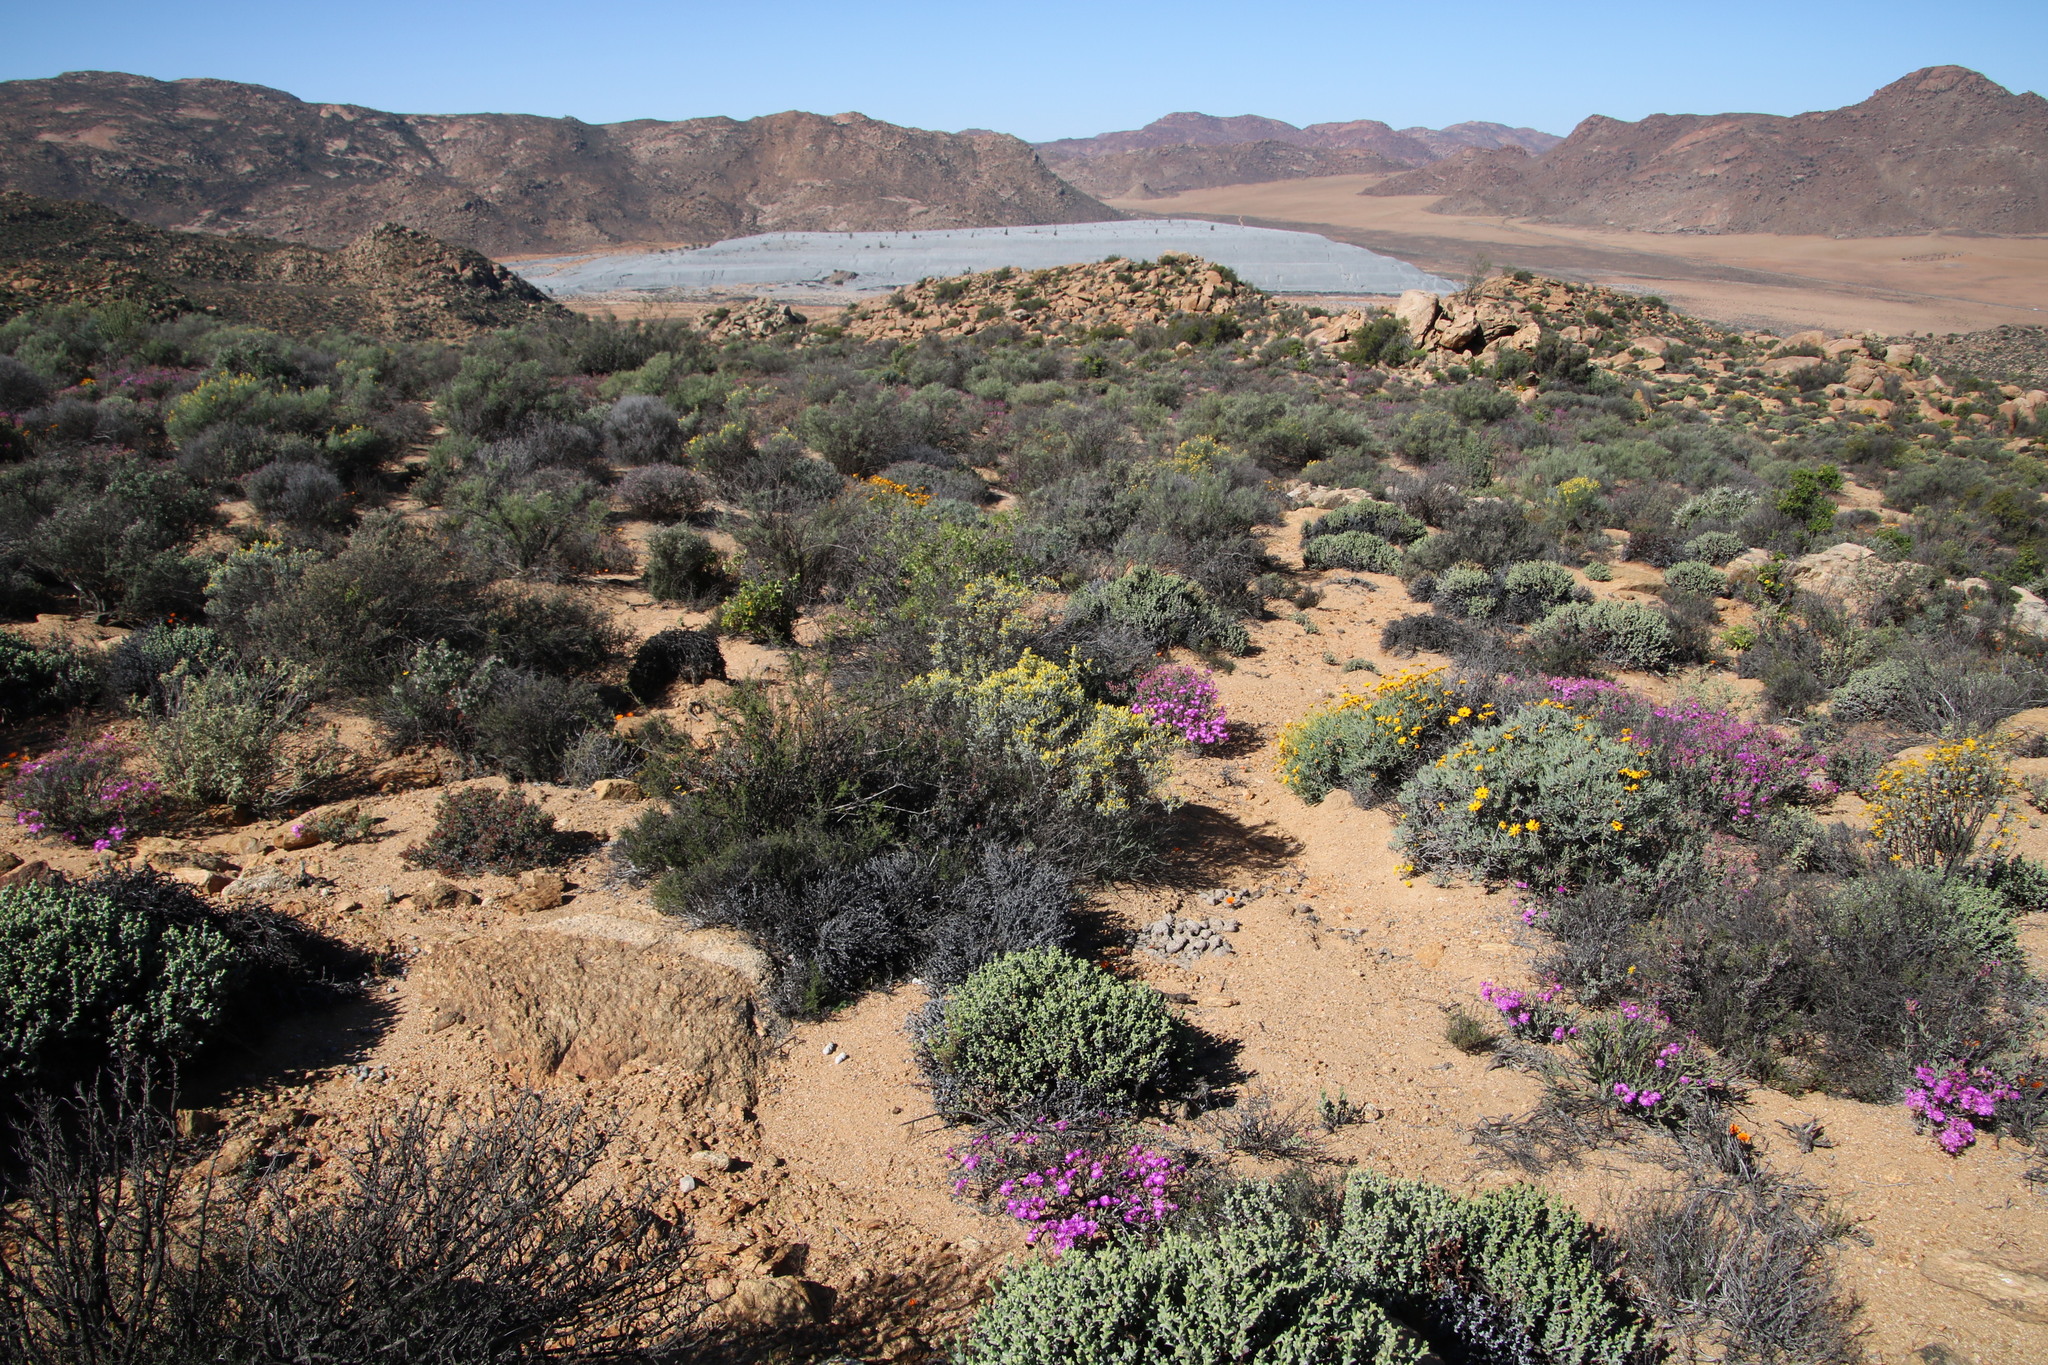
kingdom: Plantae
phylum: Tracheophyta
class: Magnoliopsida
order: Asterales
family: Asteraceae
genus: Euryops
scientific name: Euryops dregeanus
